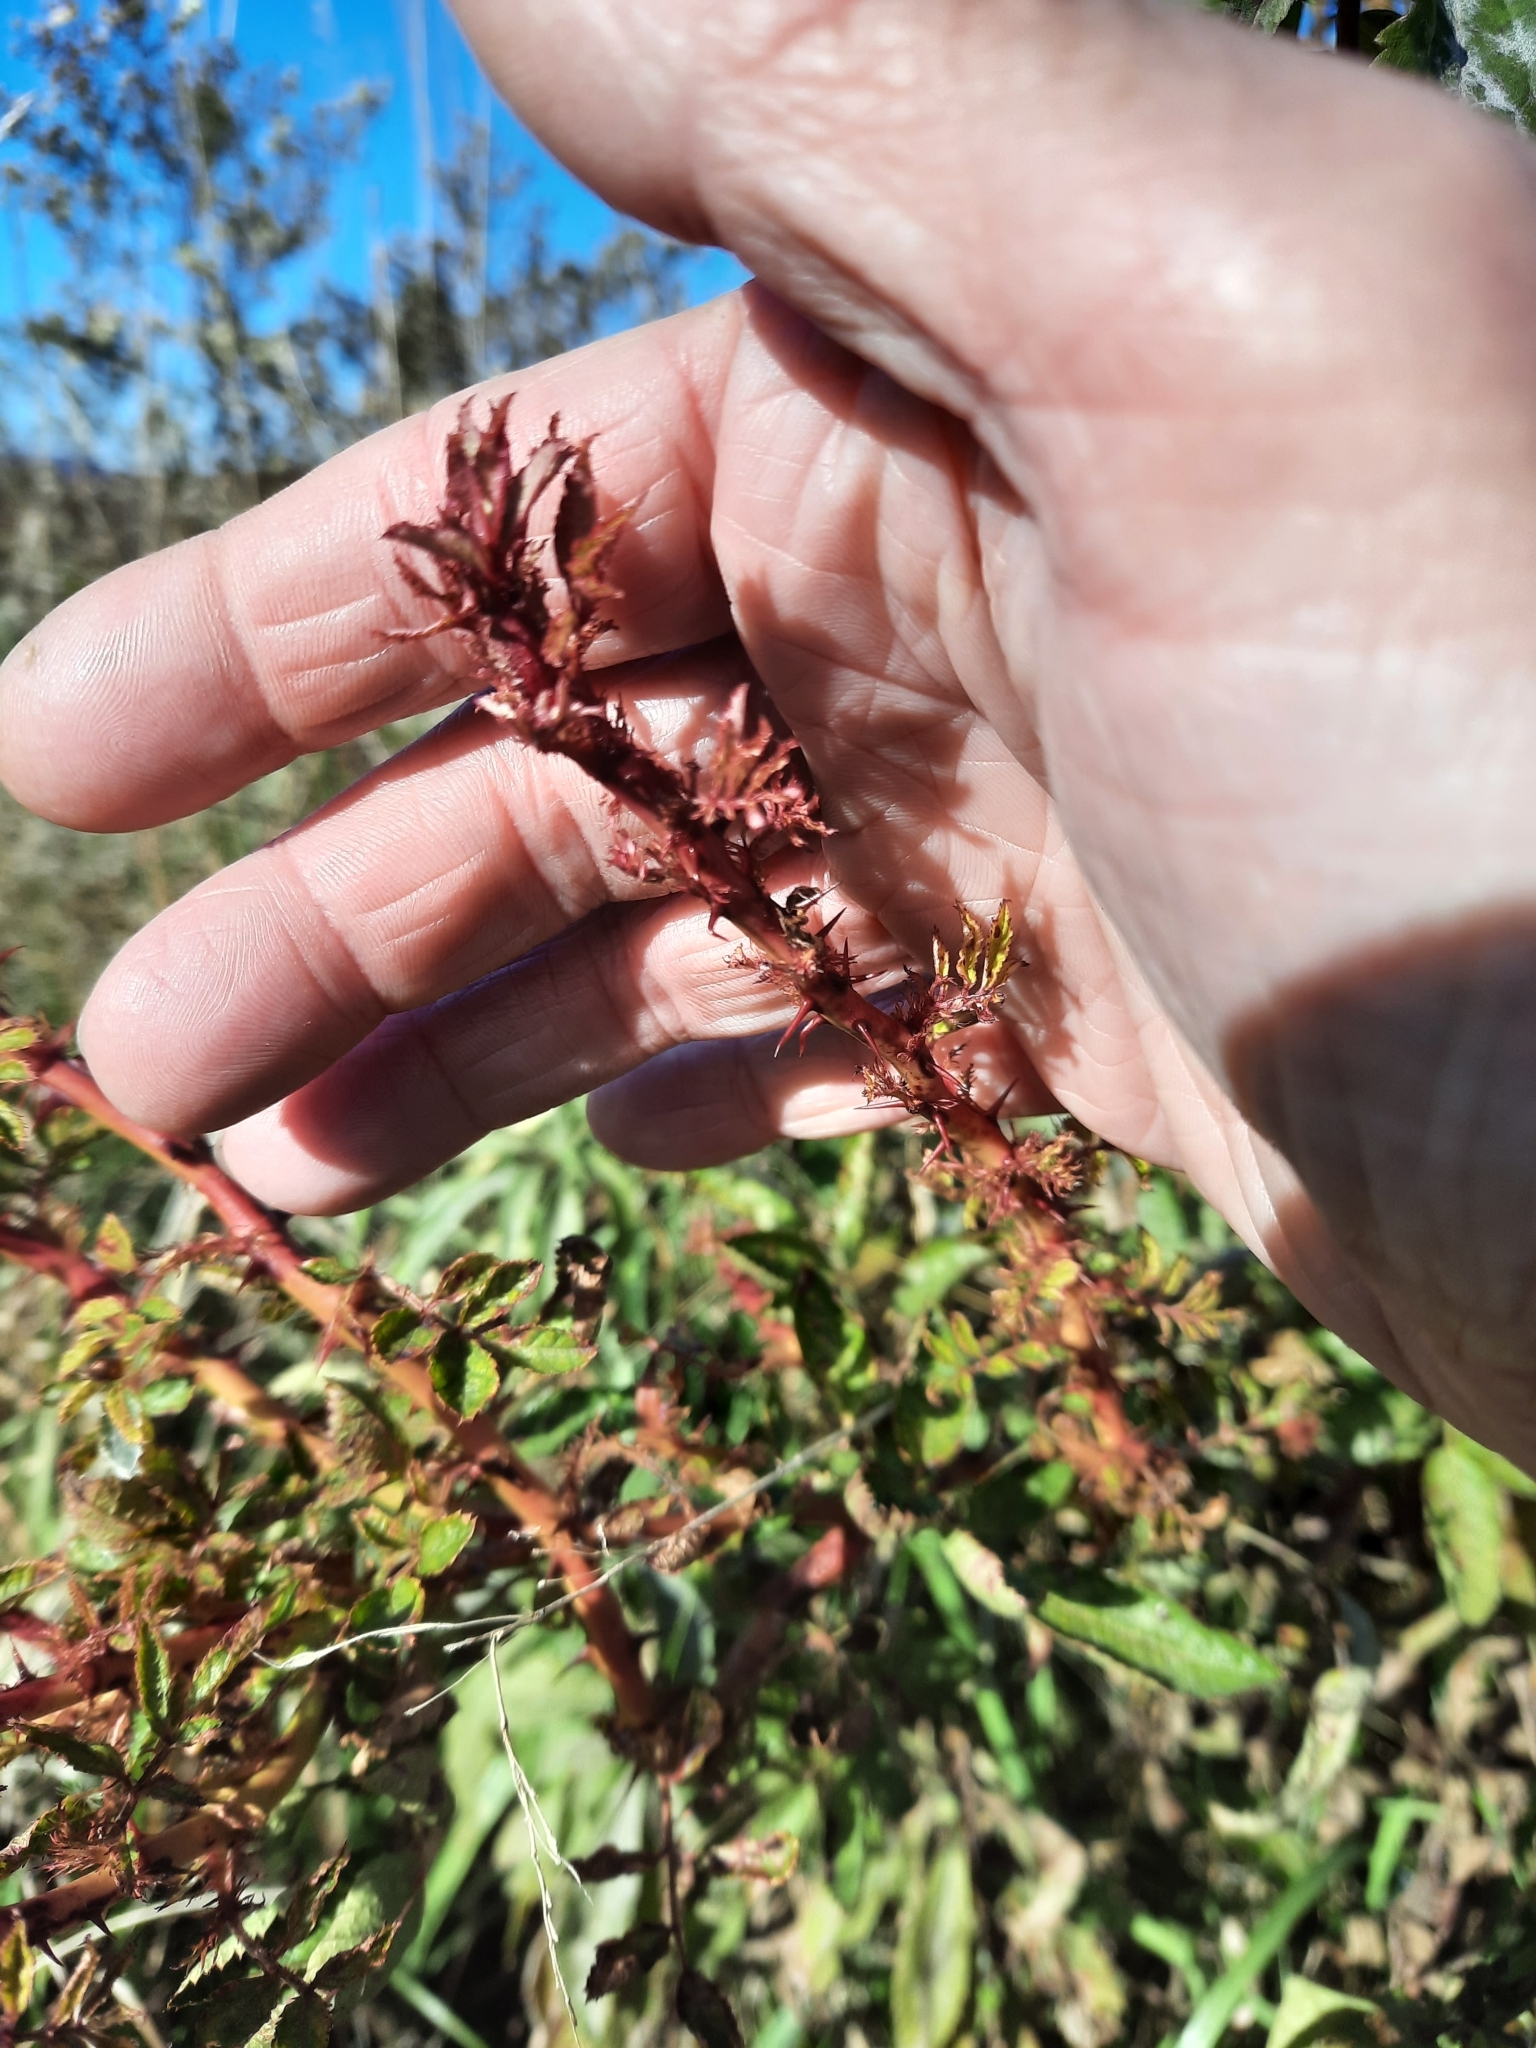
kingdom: Viruses
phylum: Negarnaviricota
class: Ellioviricetes
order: Bunyavirales
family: Fimoviridae
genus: Emaravirus
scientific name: Emaravirus rosae
